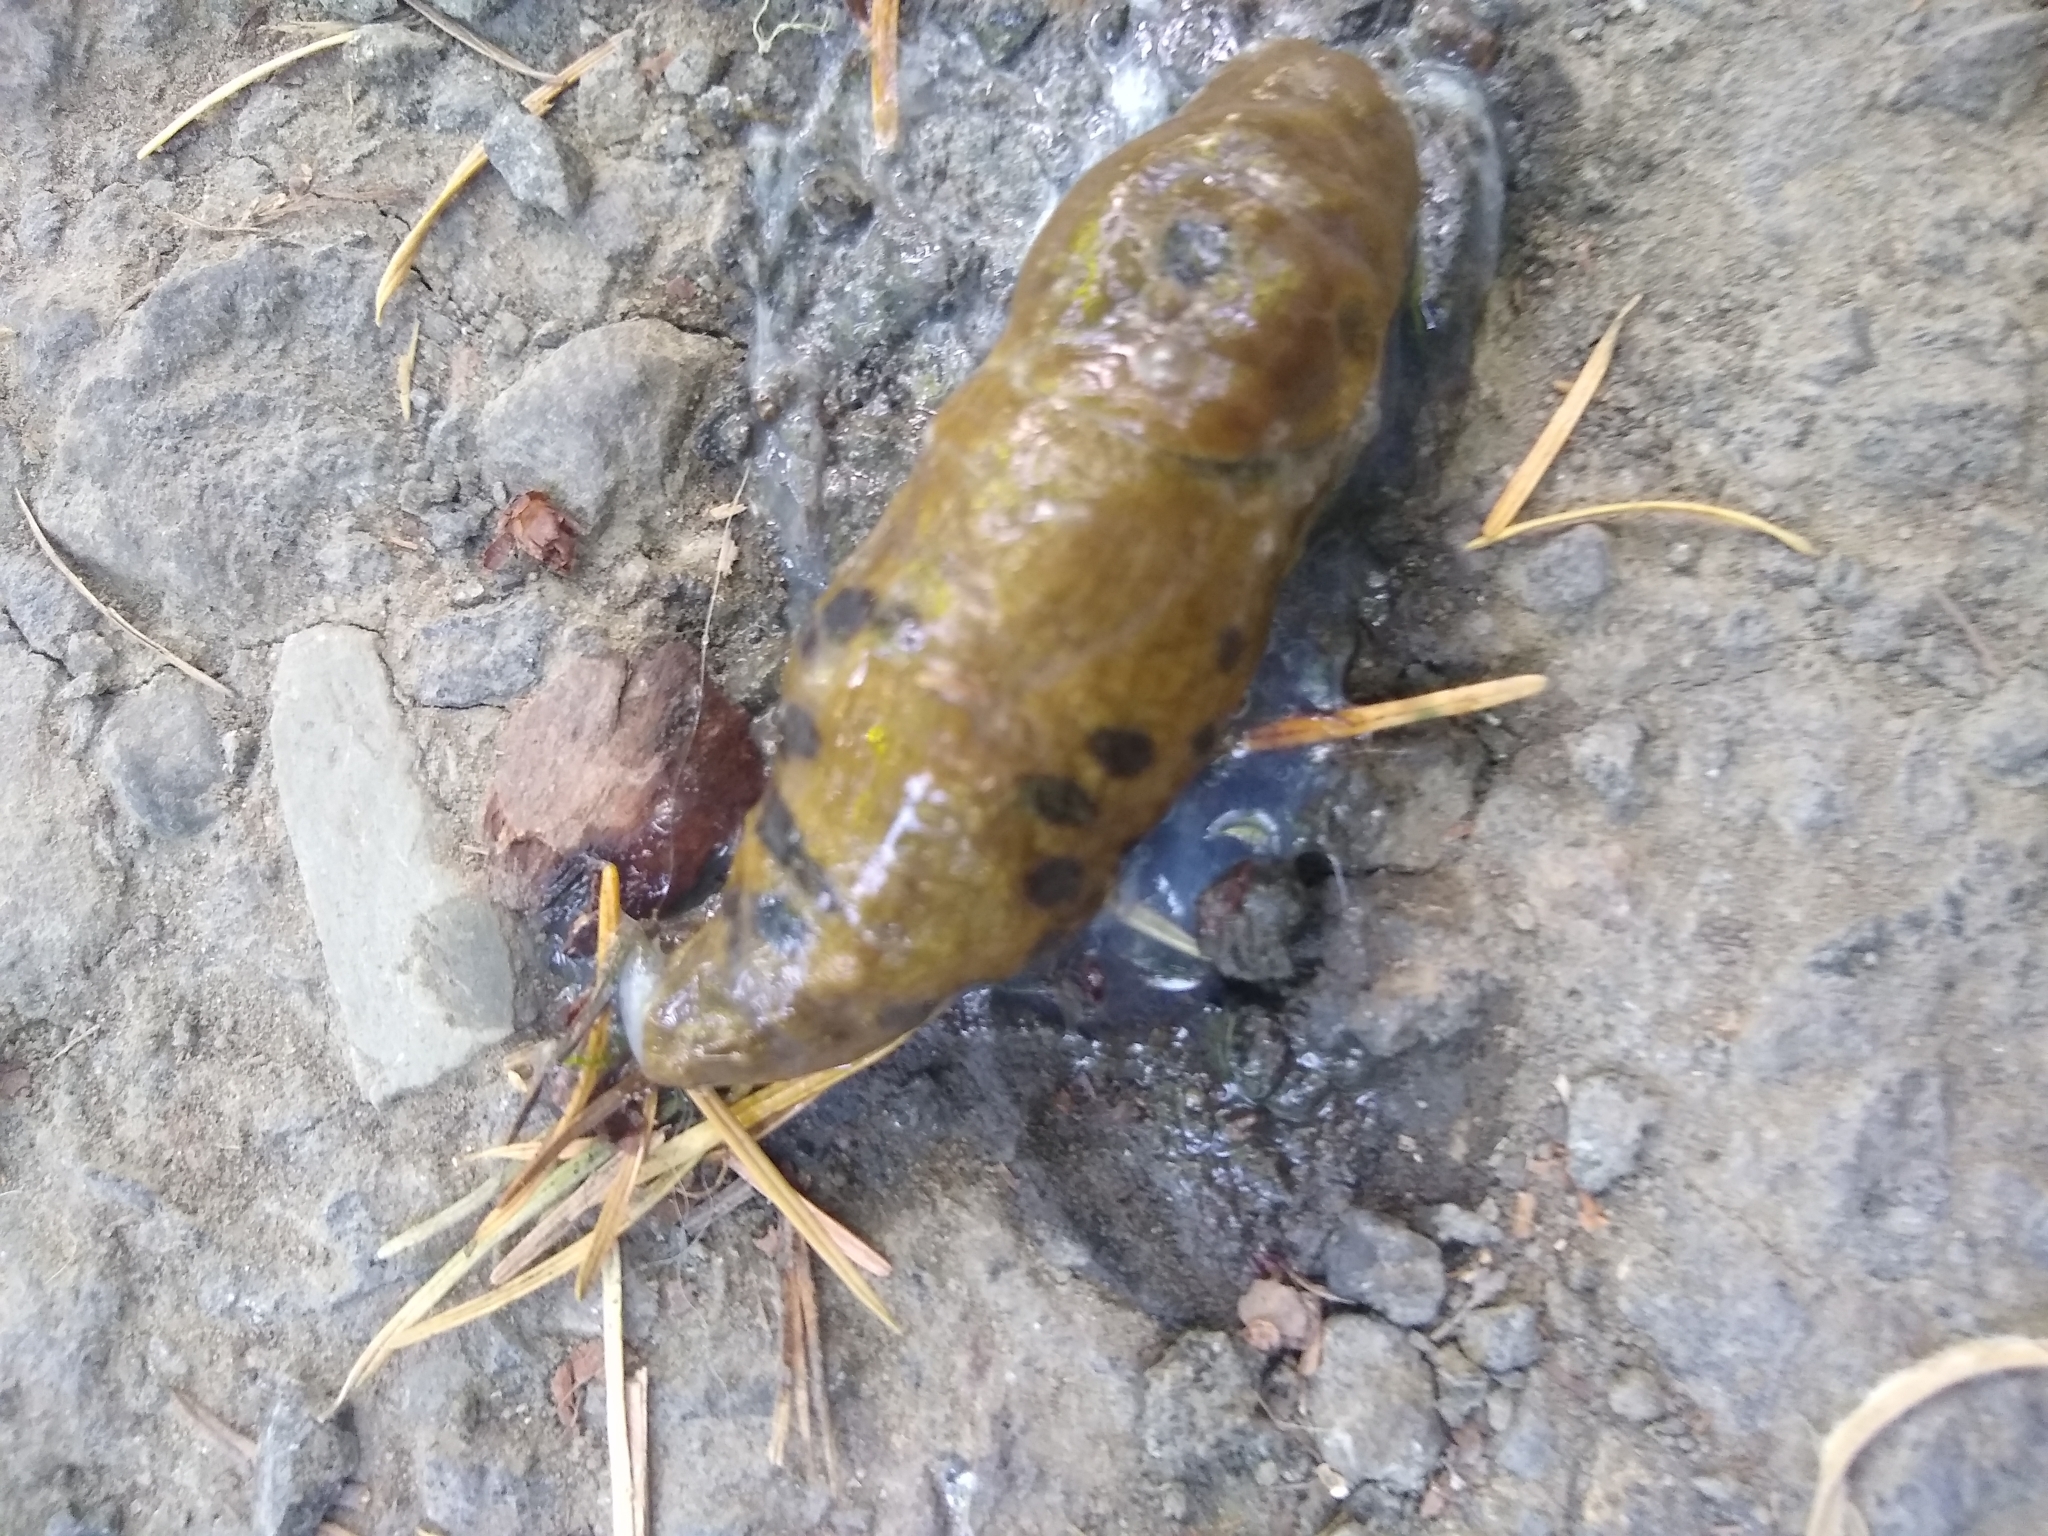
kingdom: Animalia
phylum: Mollusca
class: Gastropoda
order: Stylommatophora
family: Ariolimacidae
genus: Ariolimax
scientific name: Ariolimax columbianus
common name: Pacific banana slug
